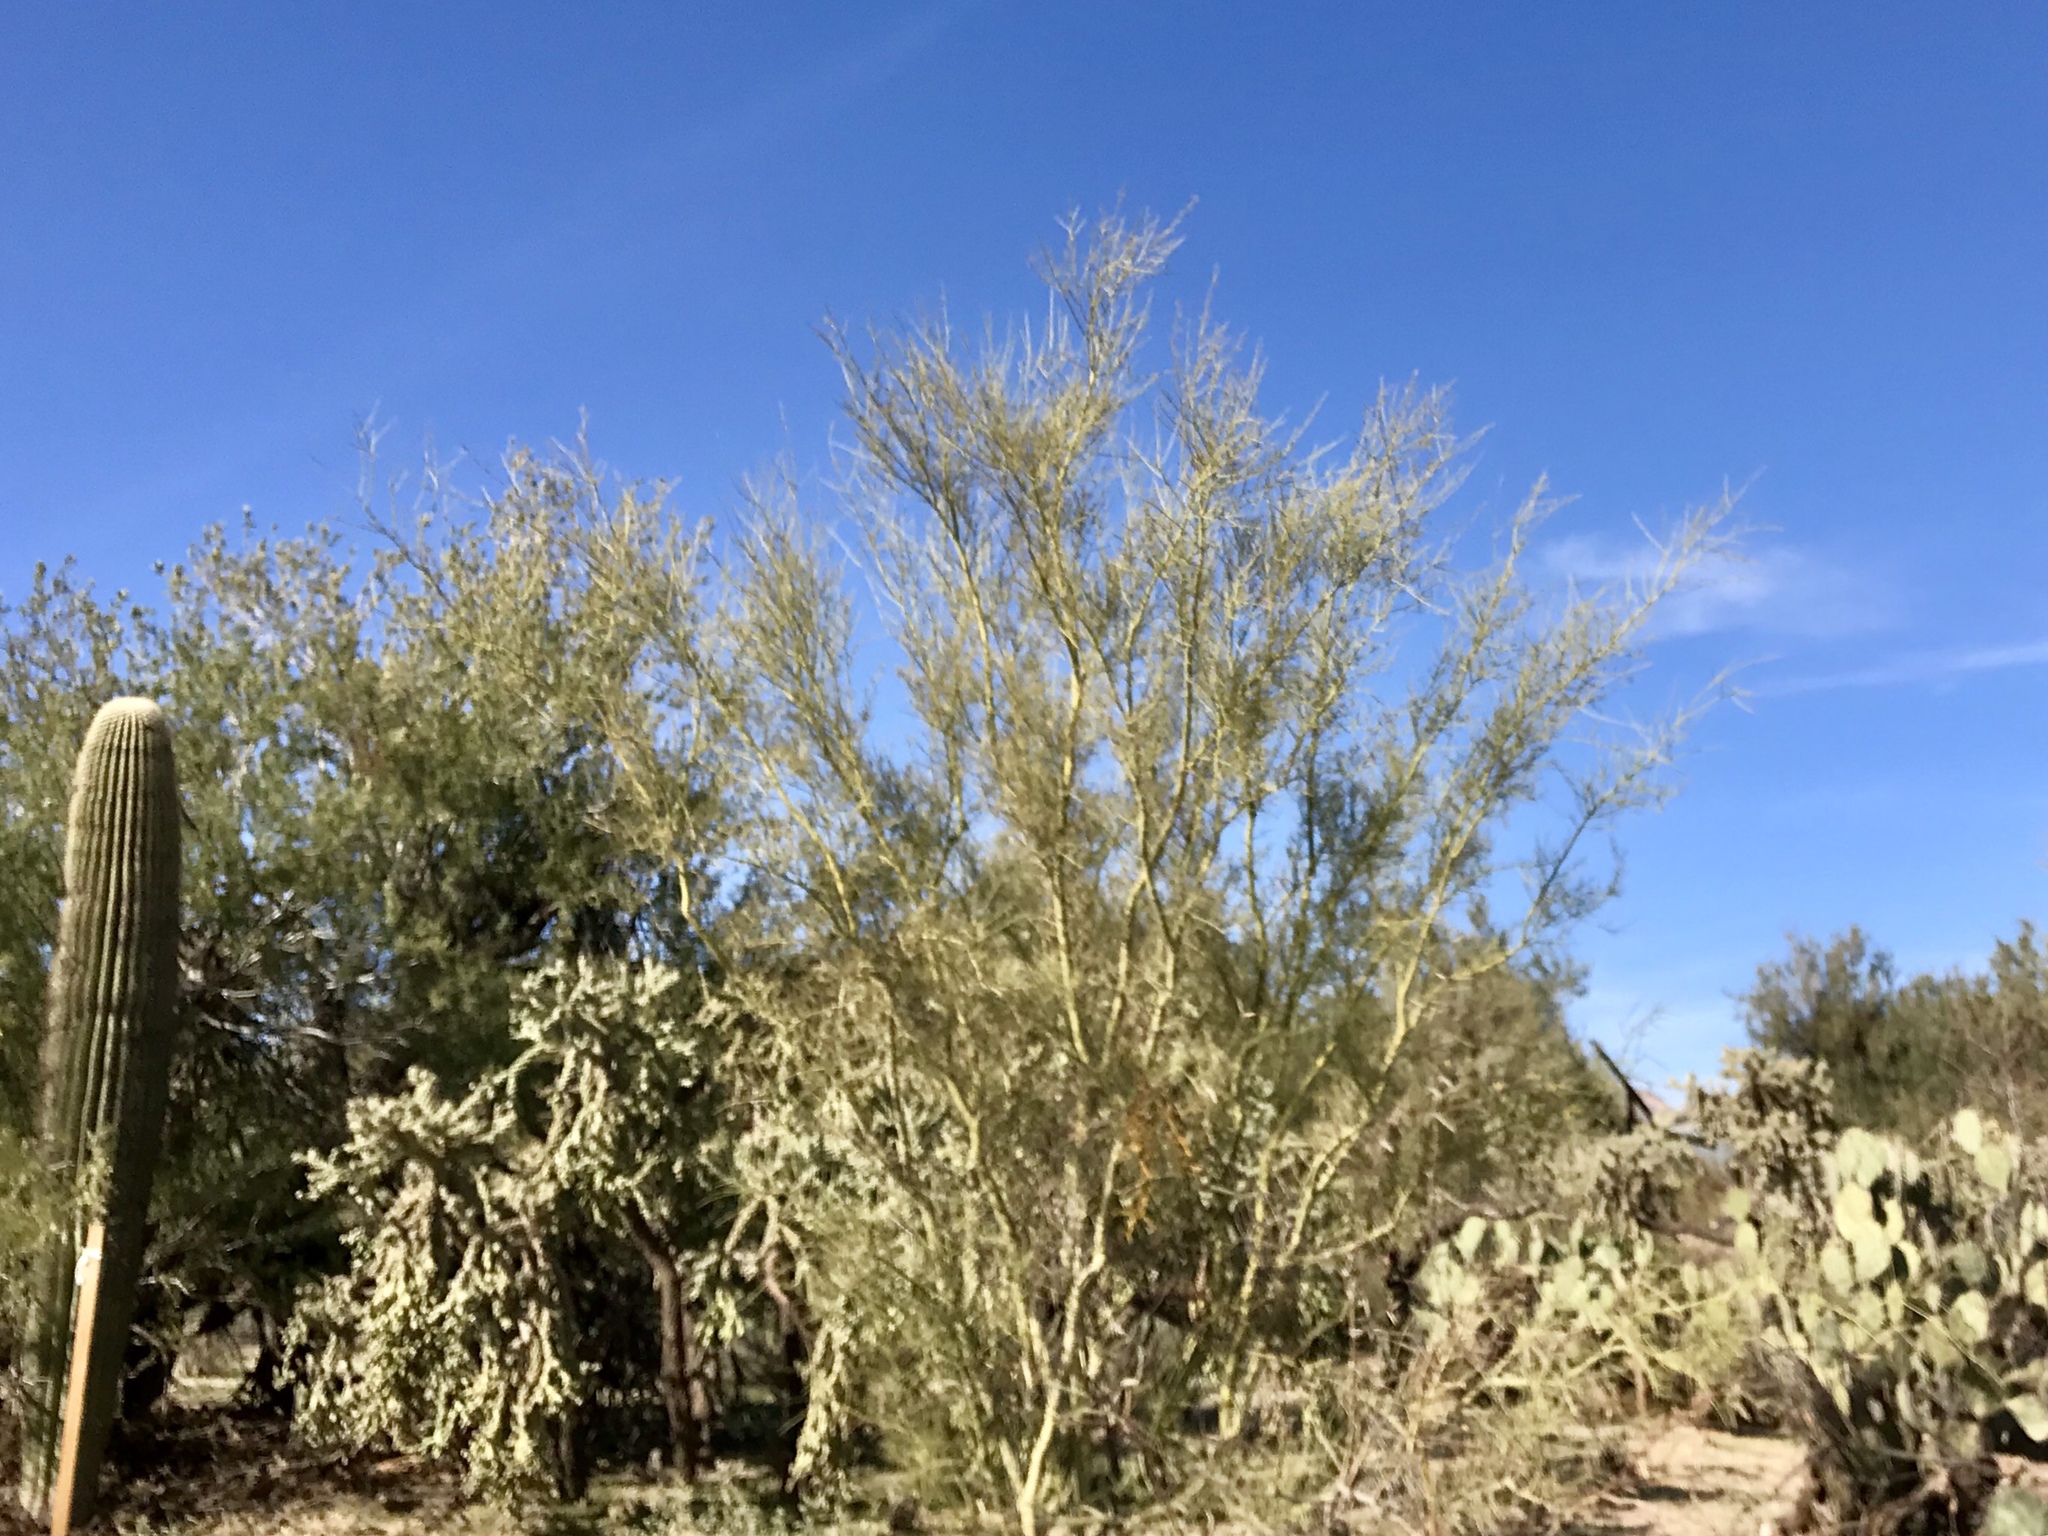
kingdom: Plantae
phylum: Tracheophyta
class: Magnoliopsida
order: Fabales
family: Fabaceae
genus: Parkinsonia
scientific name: Parkinsonia microphylla
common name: Yellow paloverde
